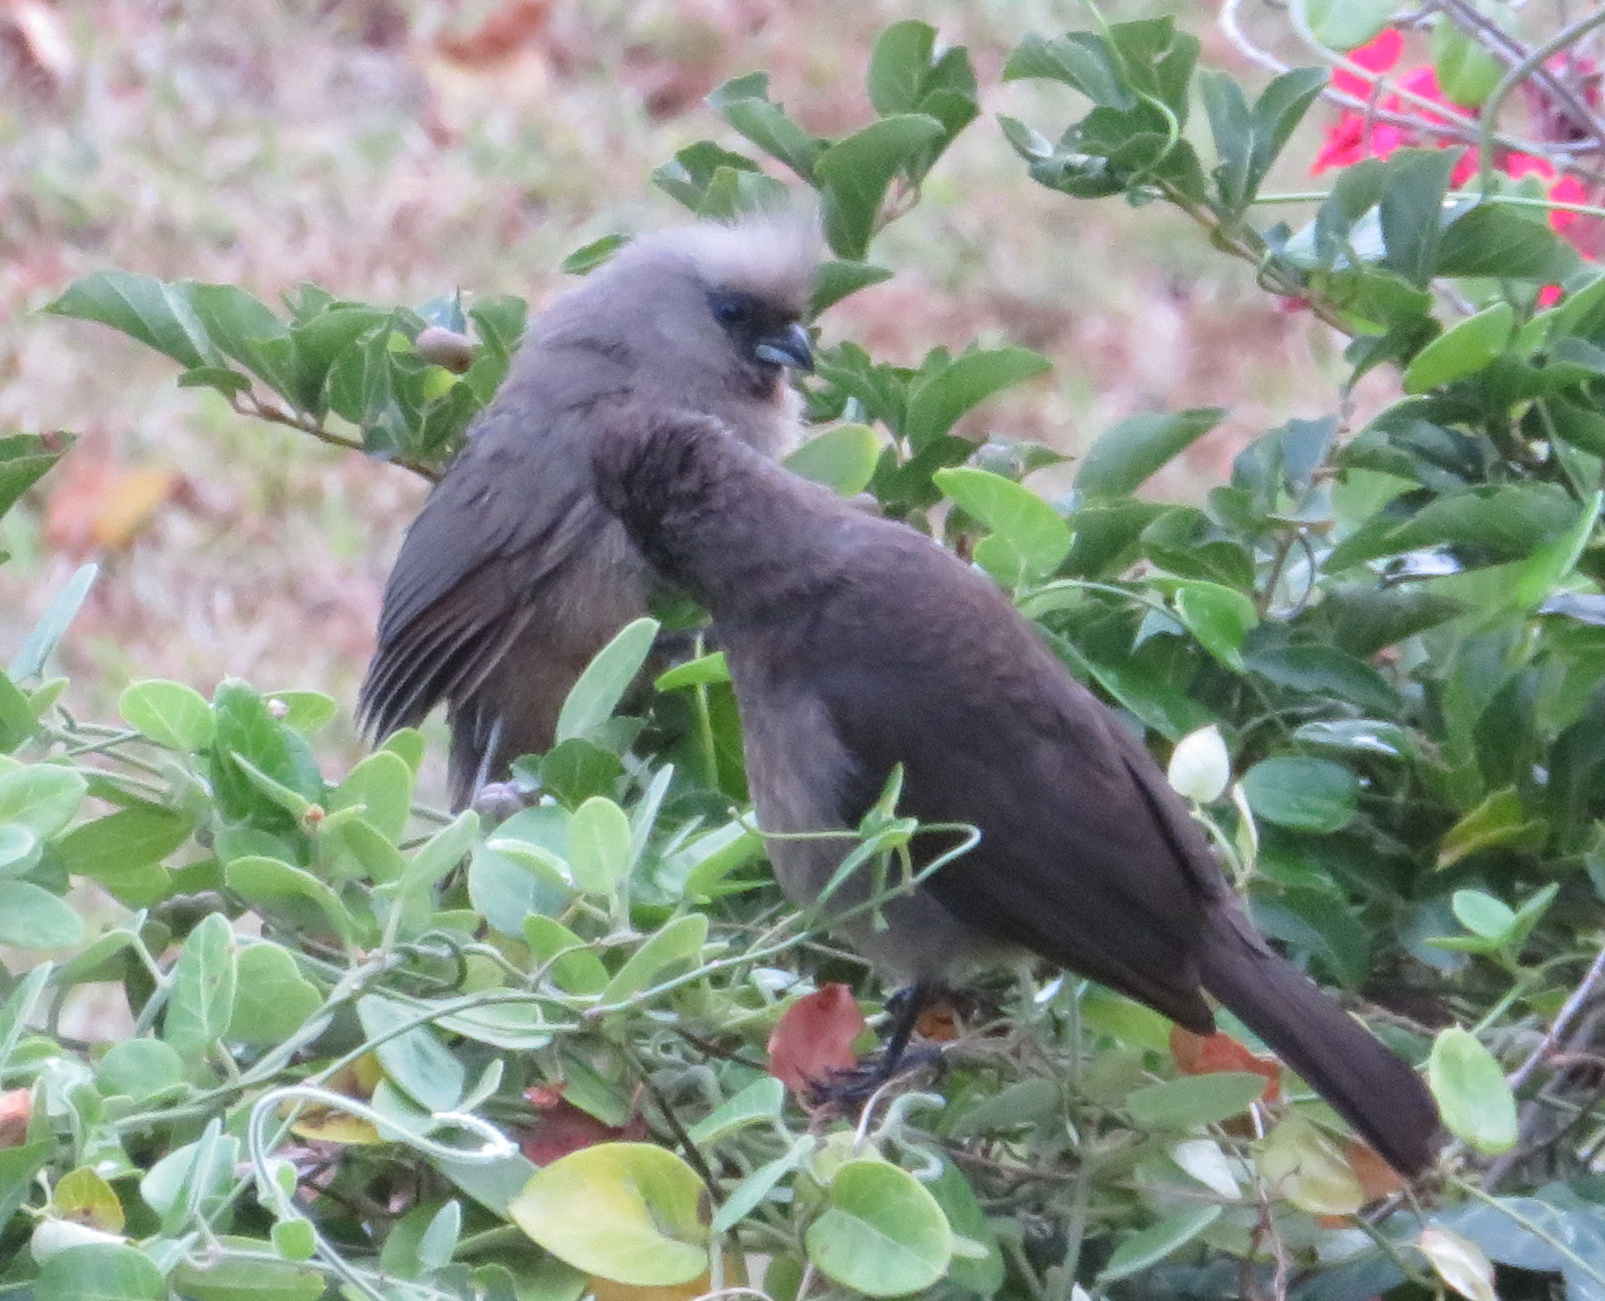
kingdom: Animalia
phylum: Chordata
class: Aves
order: Coliiformes
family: Coliidae
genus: Colius
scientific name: Colius striatus
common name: Speckled mousebird
